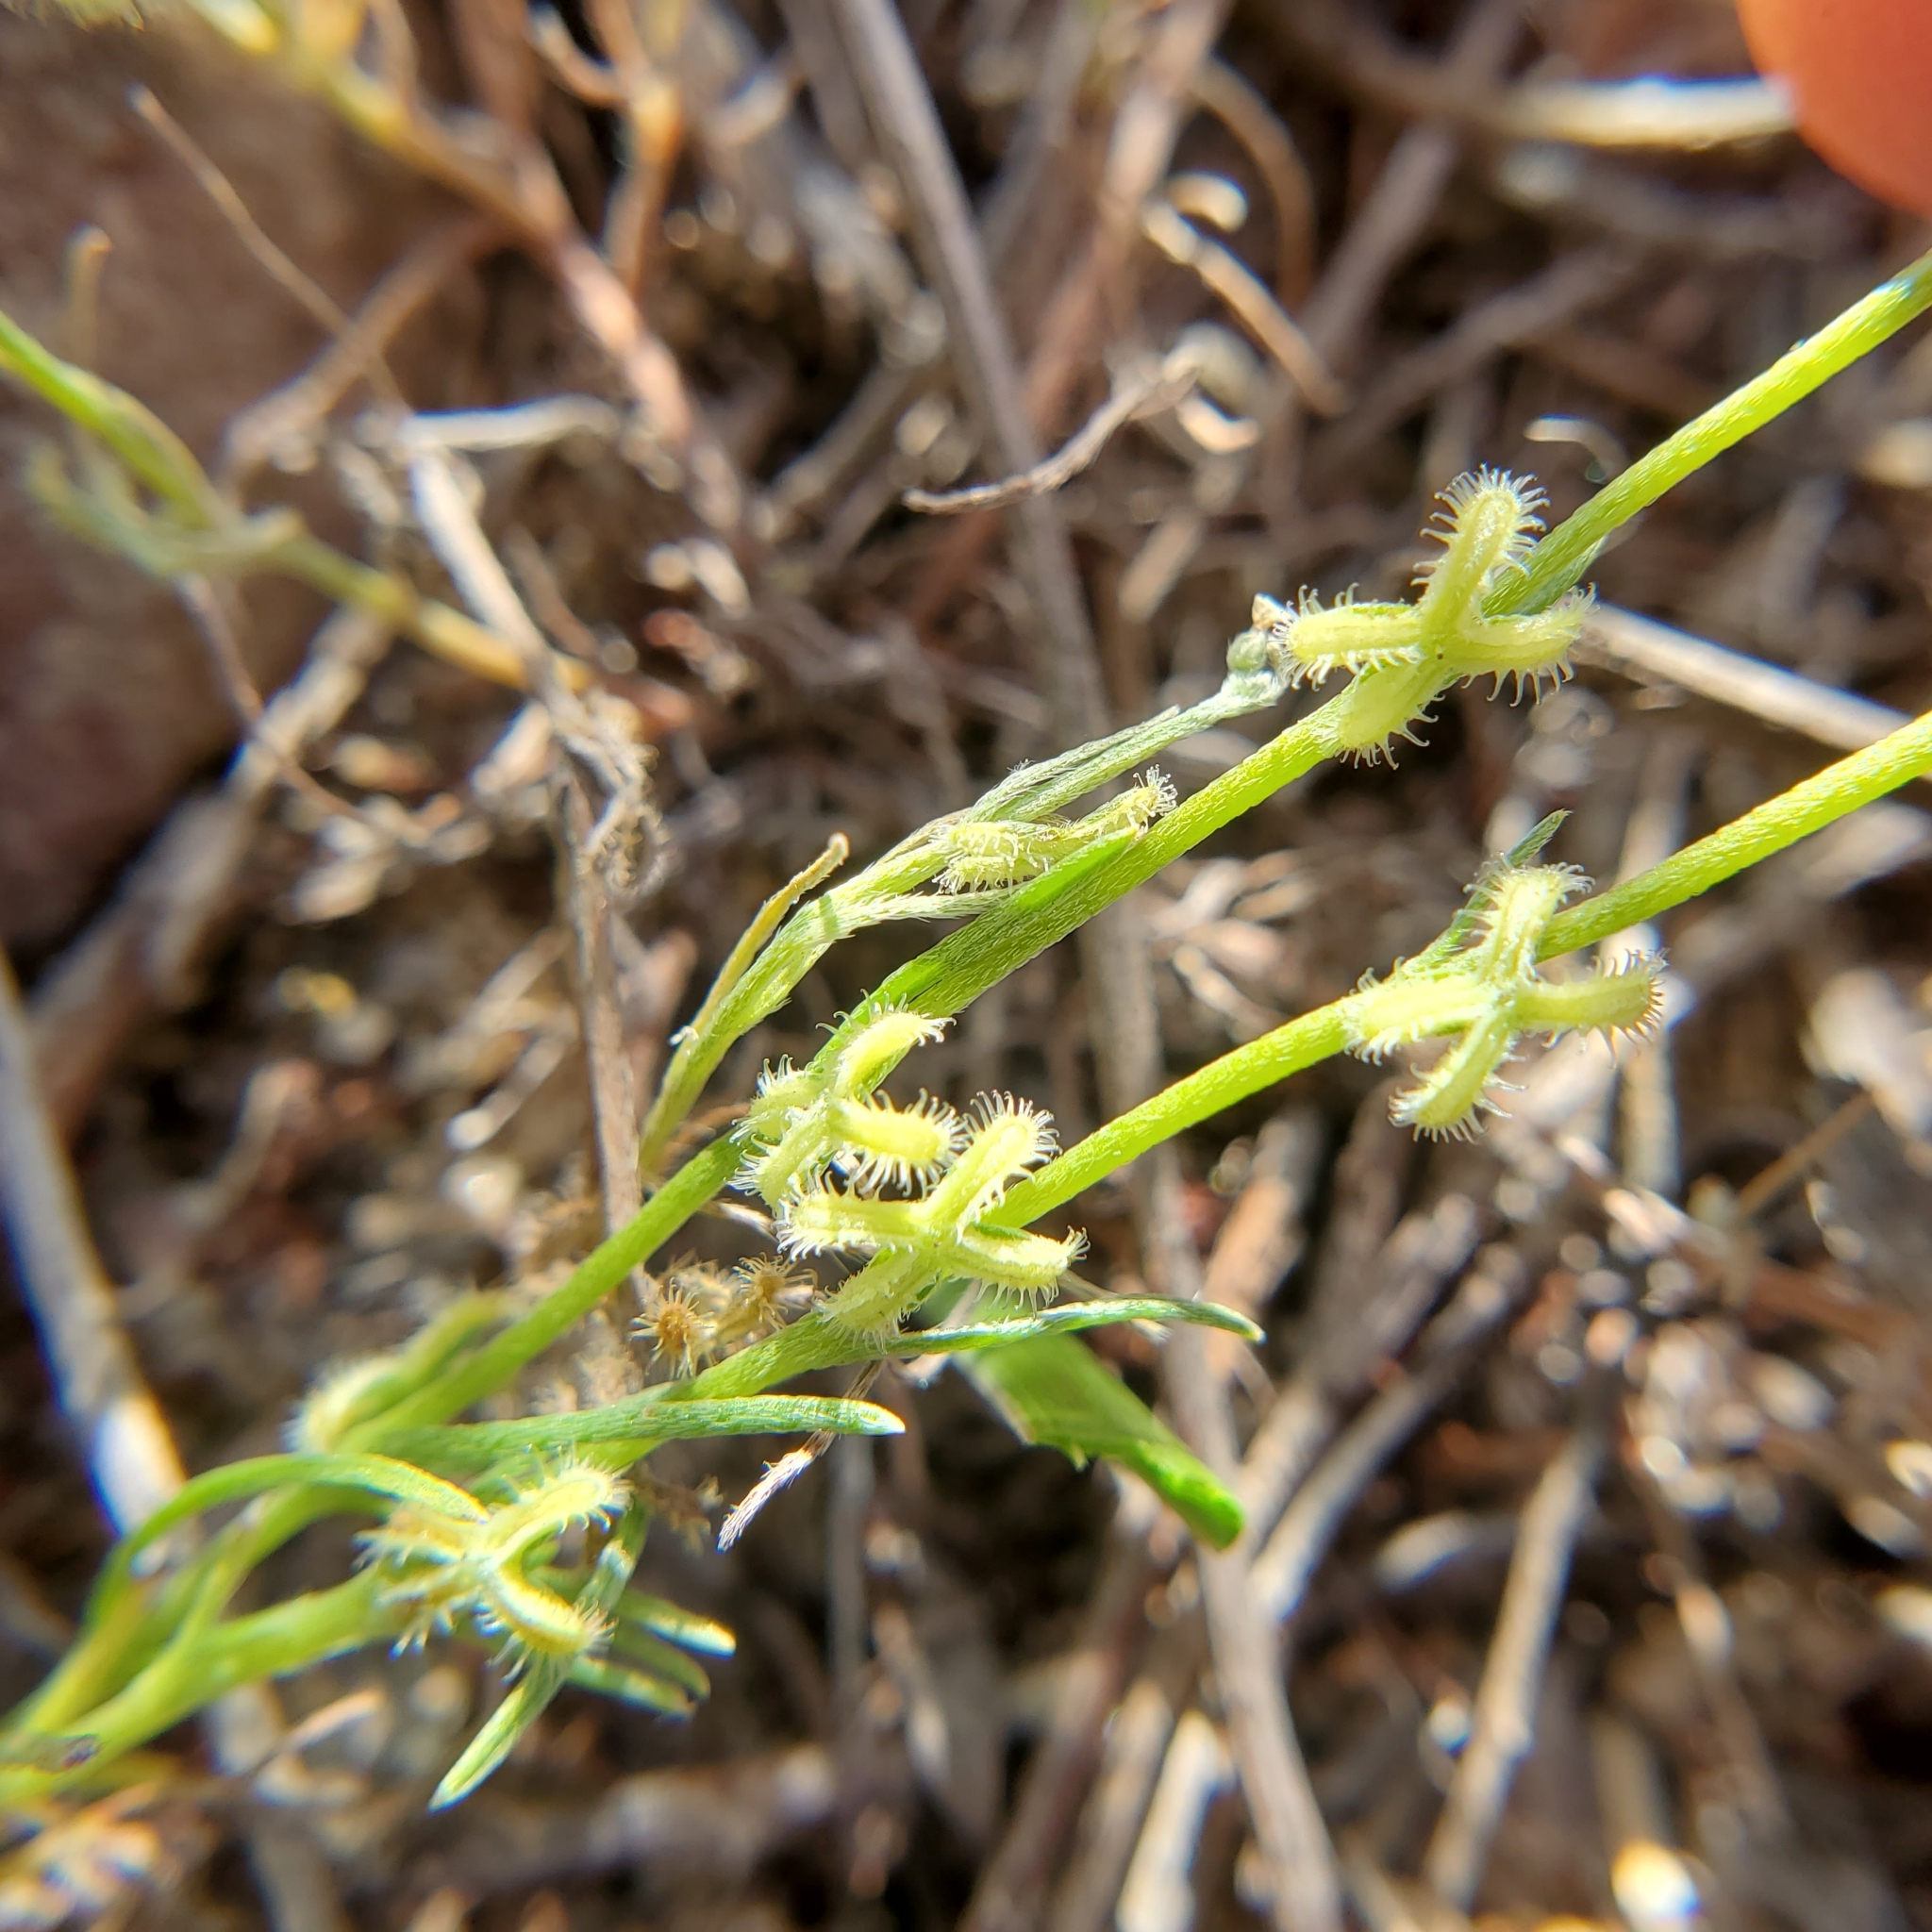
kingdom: Plantae
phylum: Tracheophyta
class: Magnoliopsida
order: Boraginales
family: Boraginaceae
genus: Pectocarya
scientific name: Pectocarya linearis
